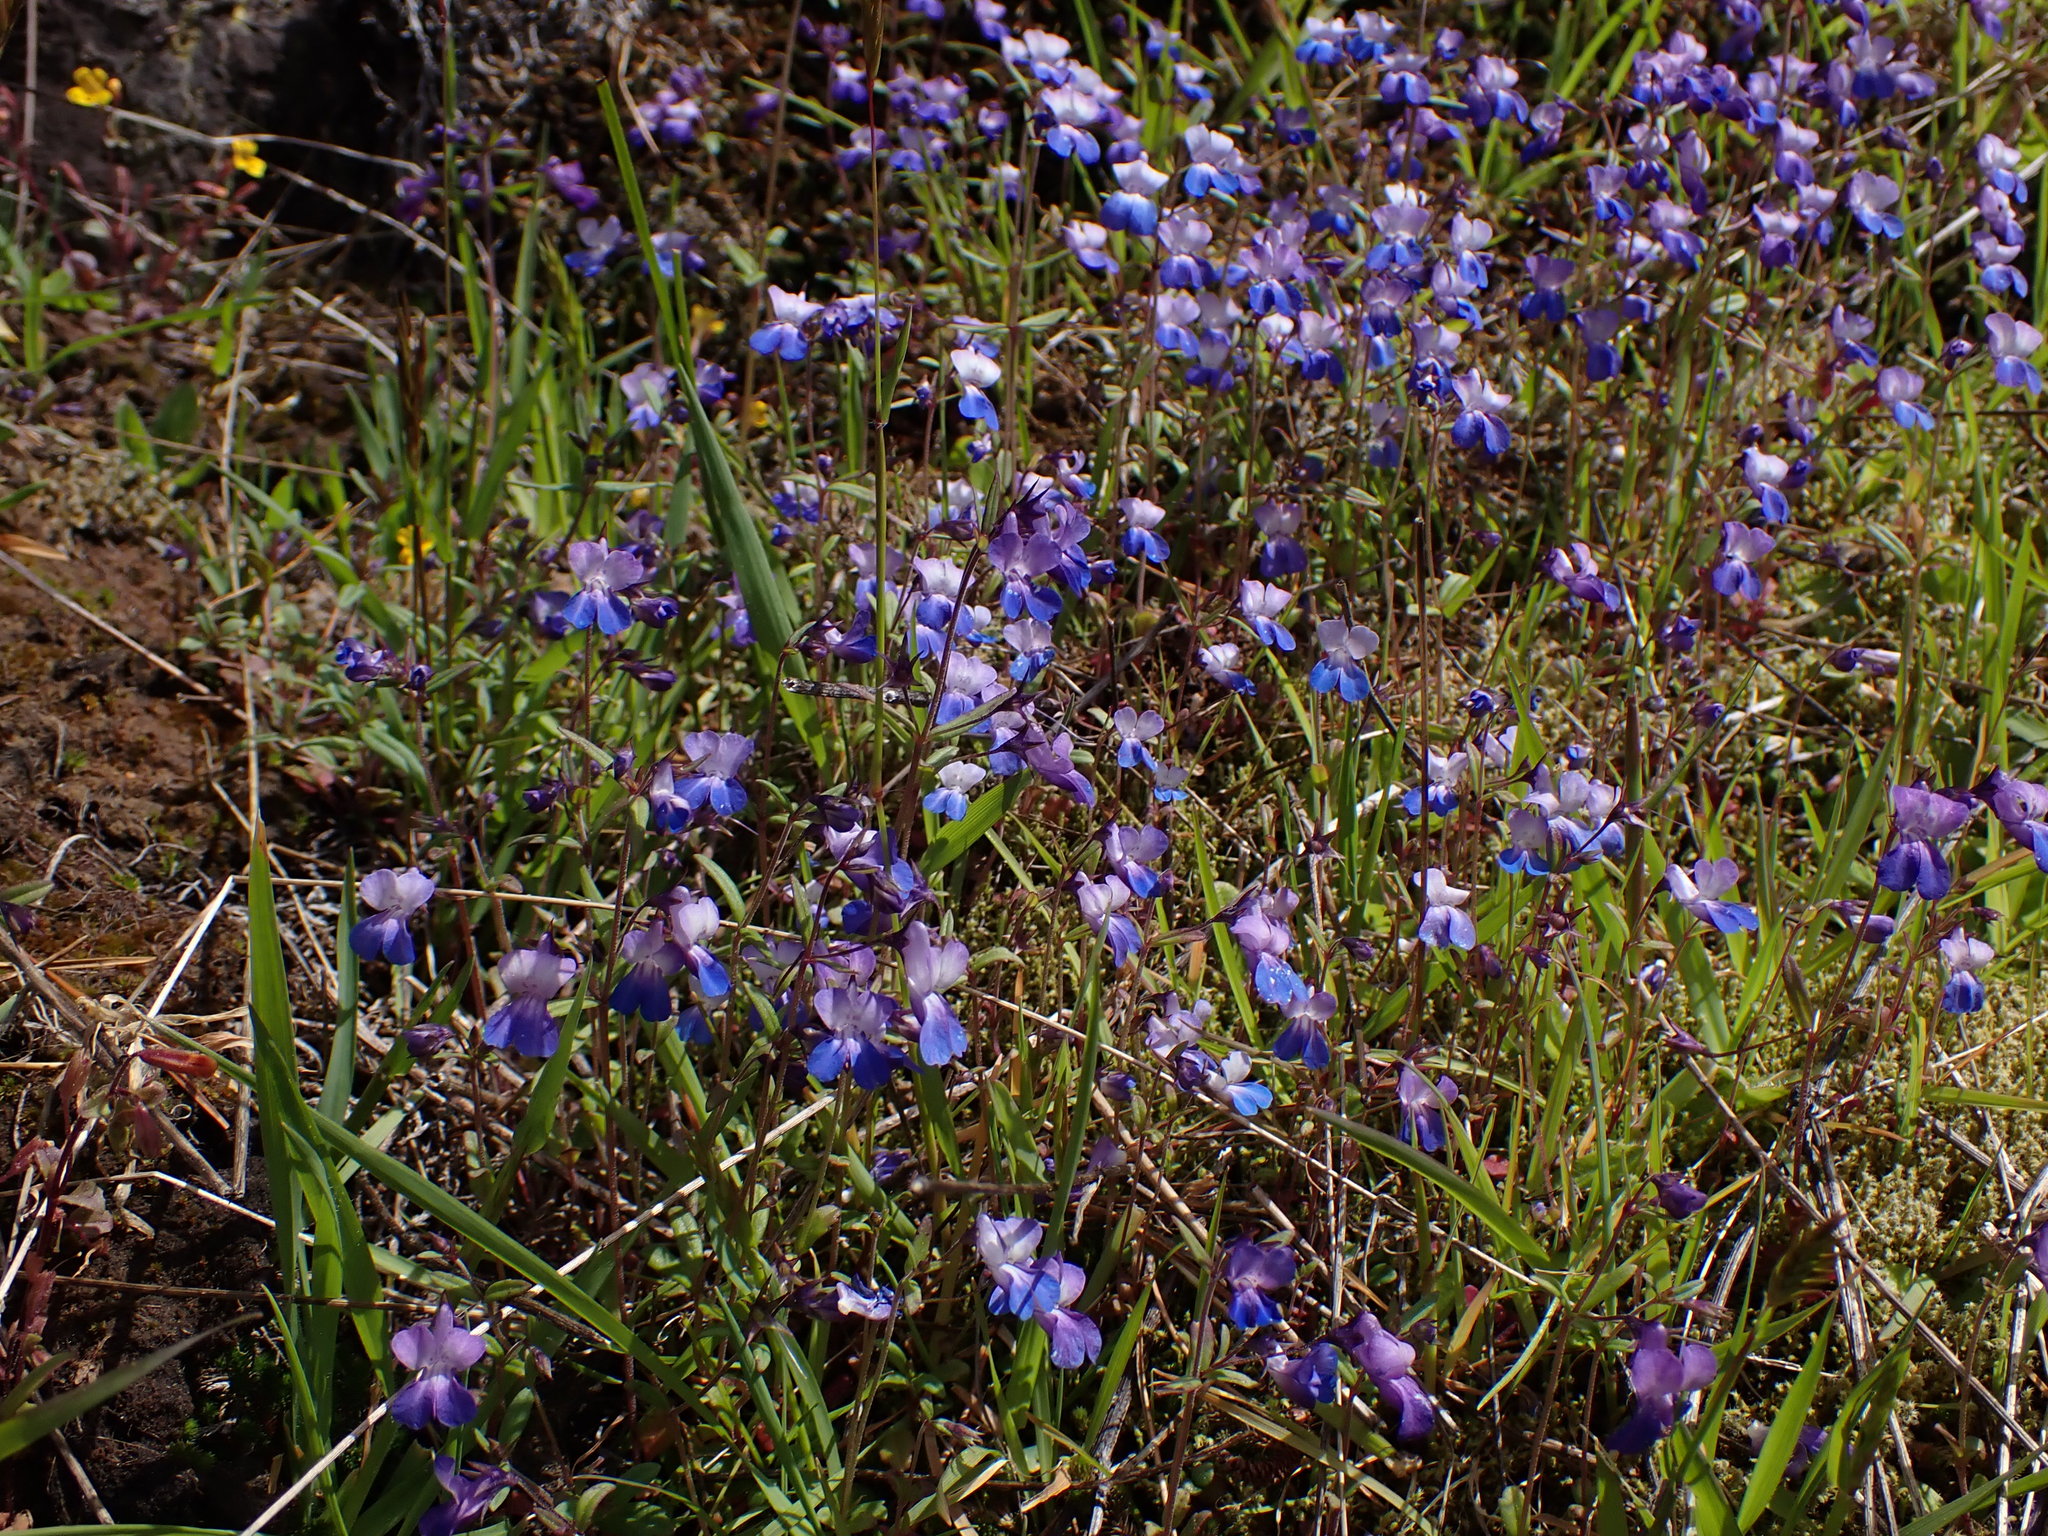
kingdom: Plantae
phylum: Tracheophyta
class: Magnoliopsida
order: Lamiales
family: Plantaginaceae
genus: Collinsia
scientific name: Collinsia grandiflora
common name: Large-flower blue-eyed-mary
